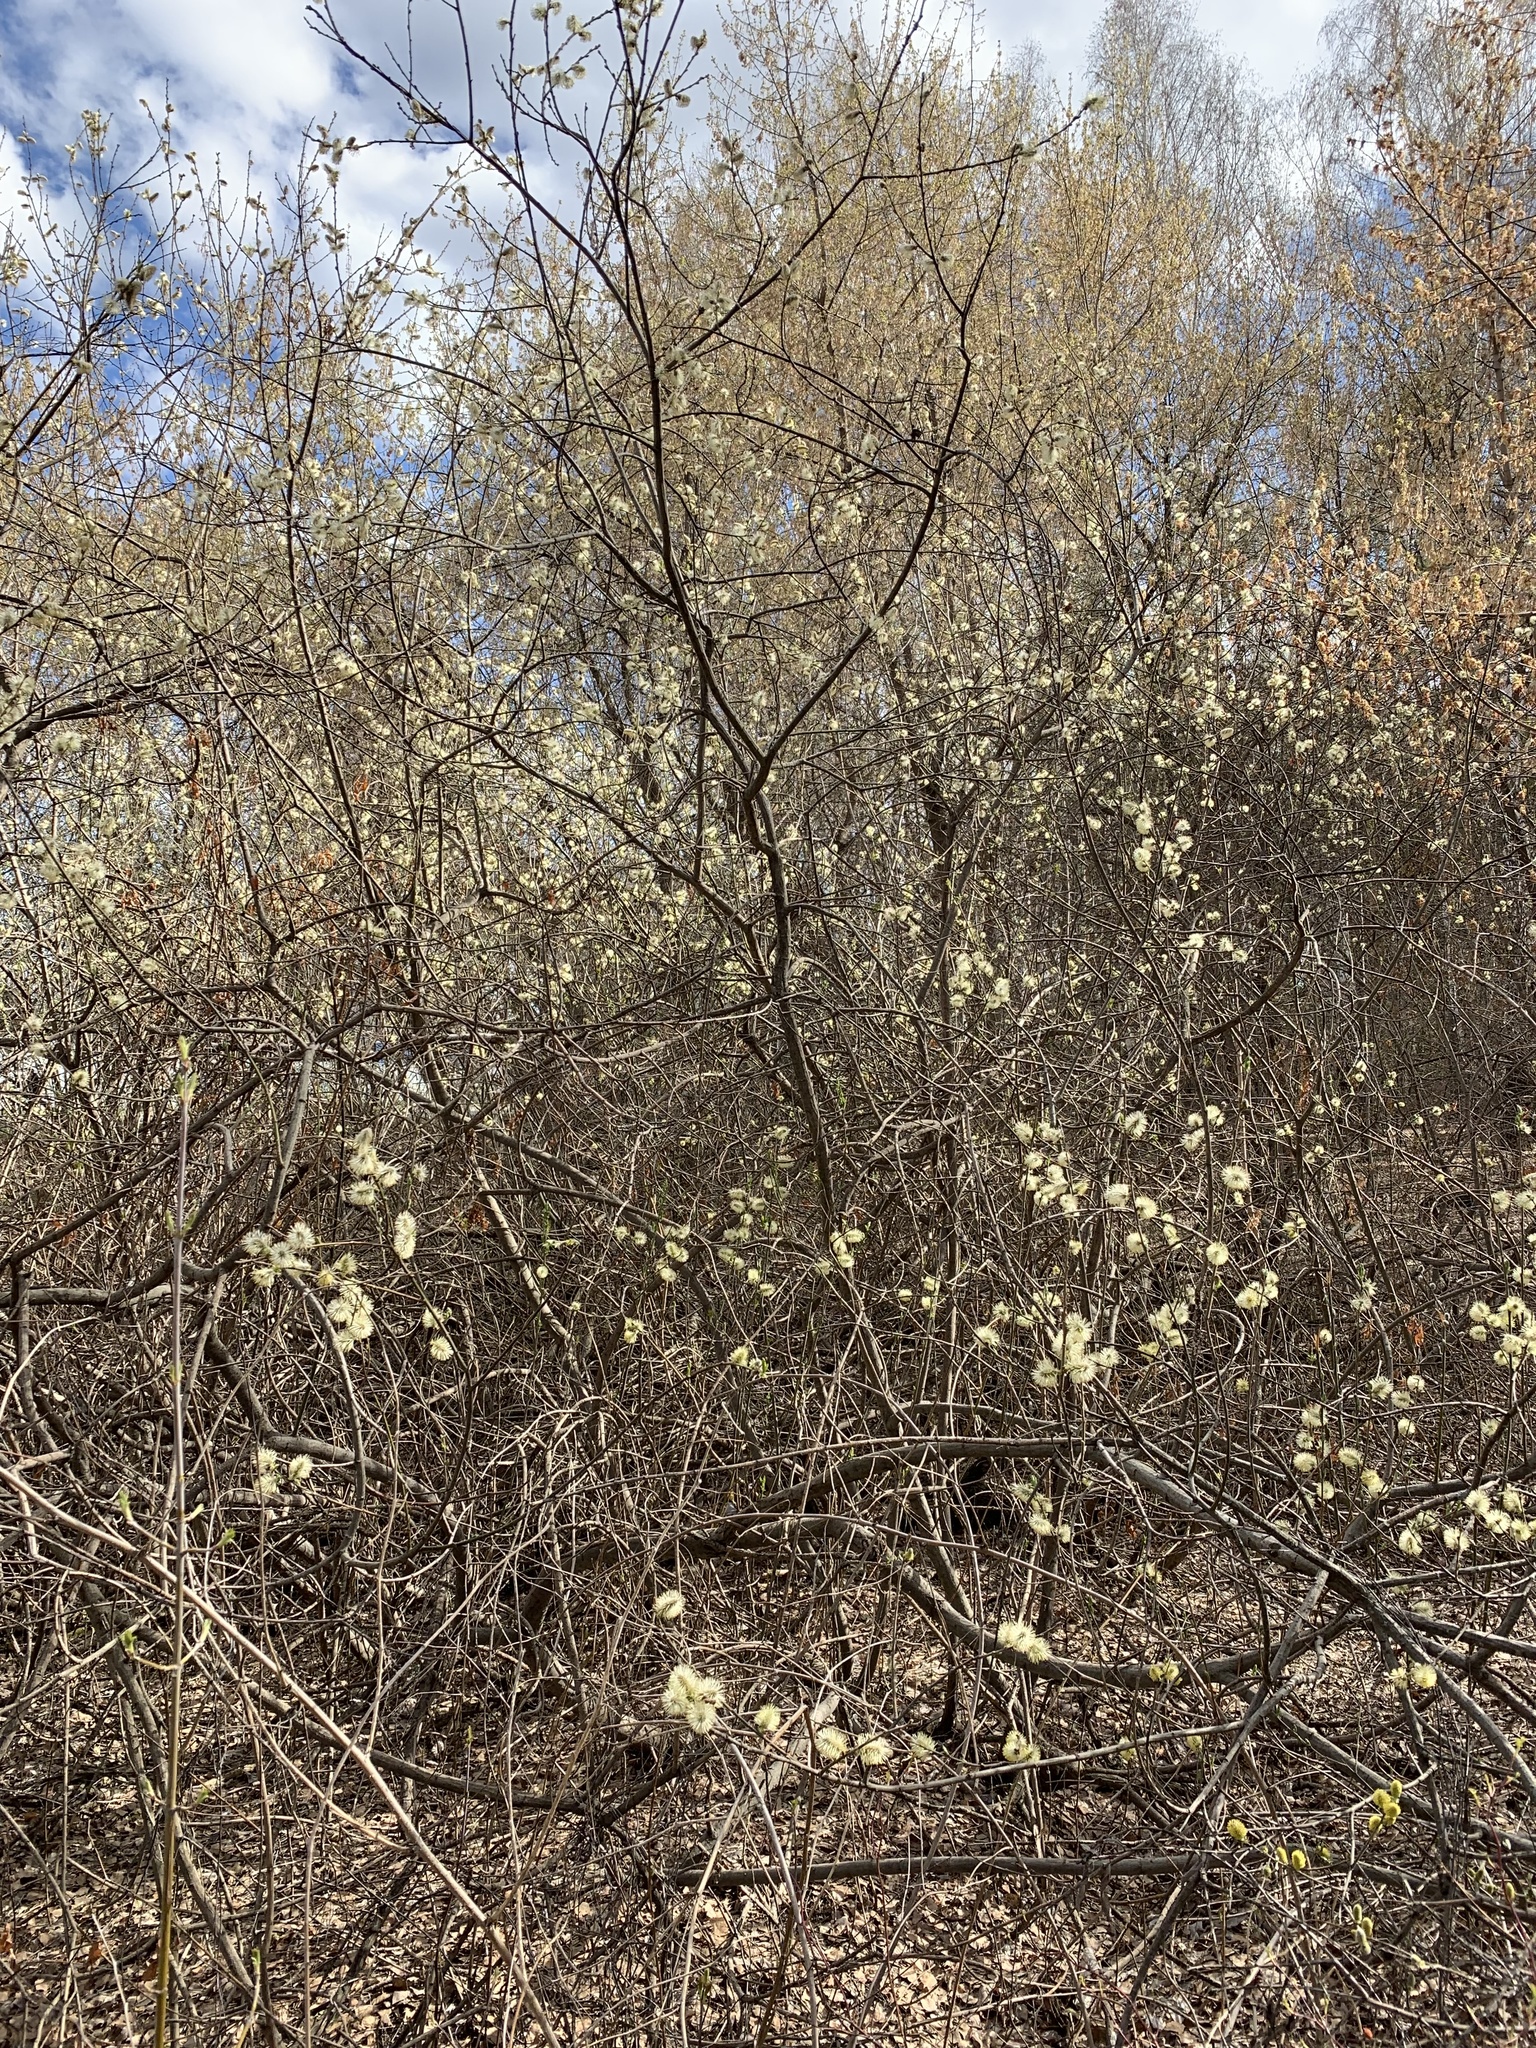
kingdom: Plantae
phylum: Tracheophyta
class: Magnoliopsida
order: Malpighiales
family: Salicaceae
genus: Salix
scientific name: Salix cinerea
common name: Common sallow
